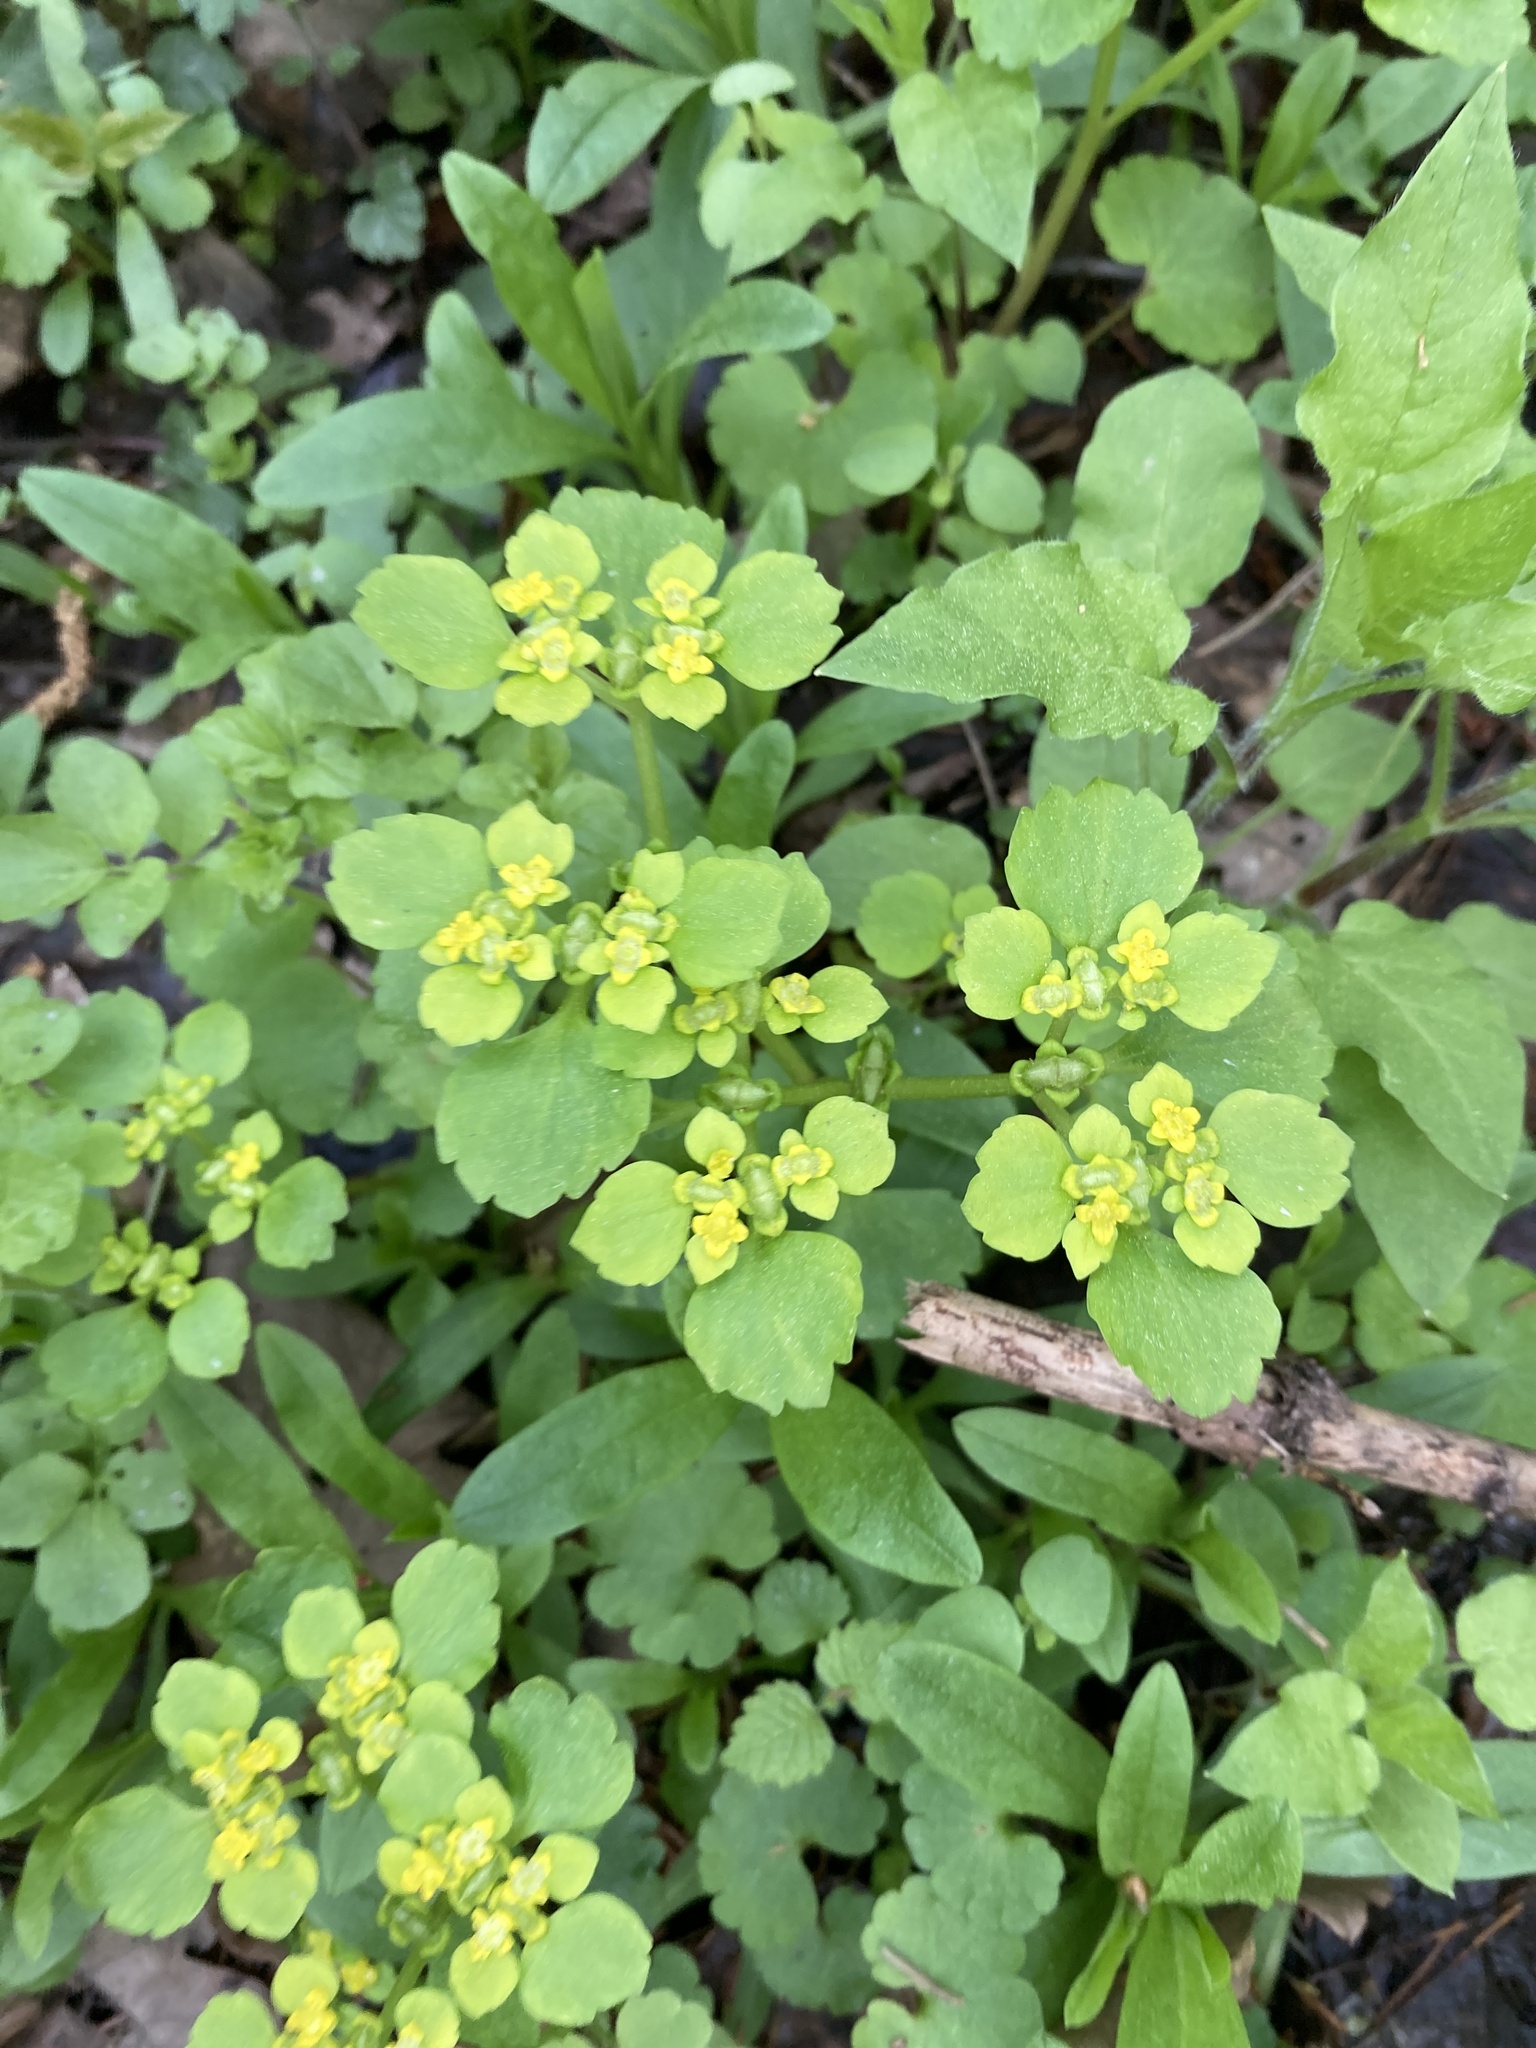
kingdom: Plantae
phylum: Tracheophyta
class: Magnoliopsida
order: Saxifragales
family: Saxifragaceae
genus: Chrysosplenium
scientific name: Chrysosplenium alternifolium
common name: Alternate-leaved golden-saxifrage
